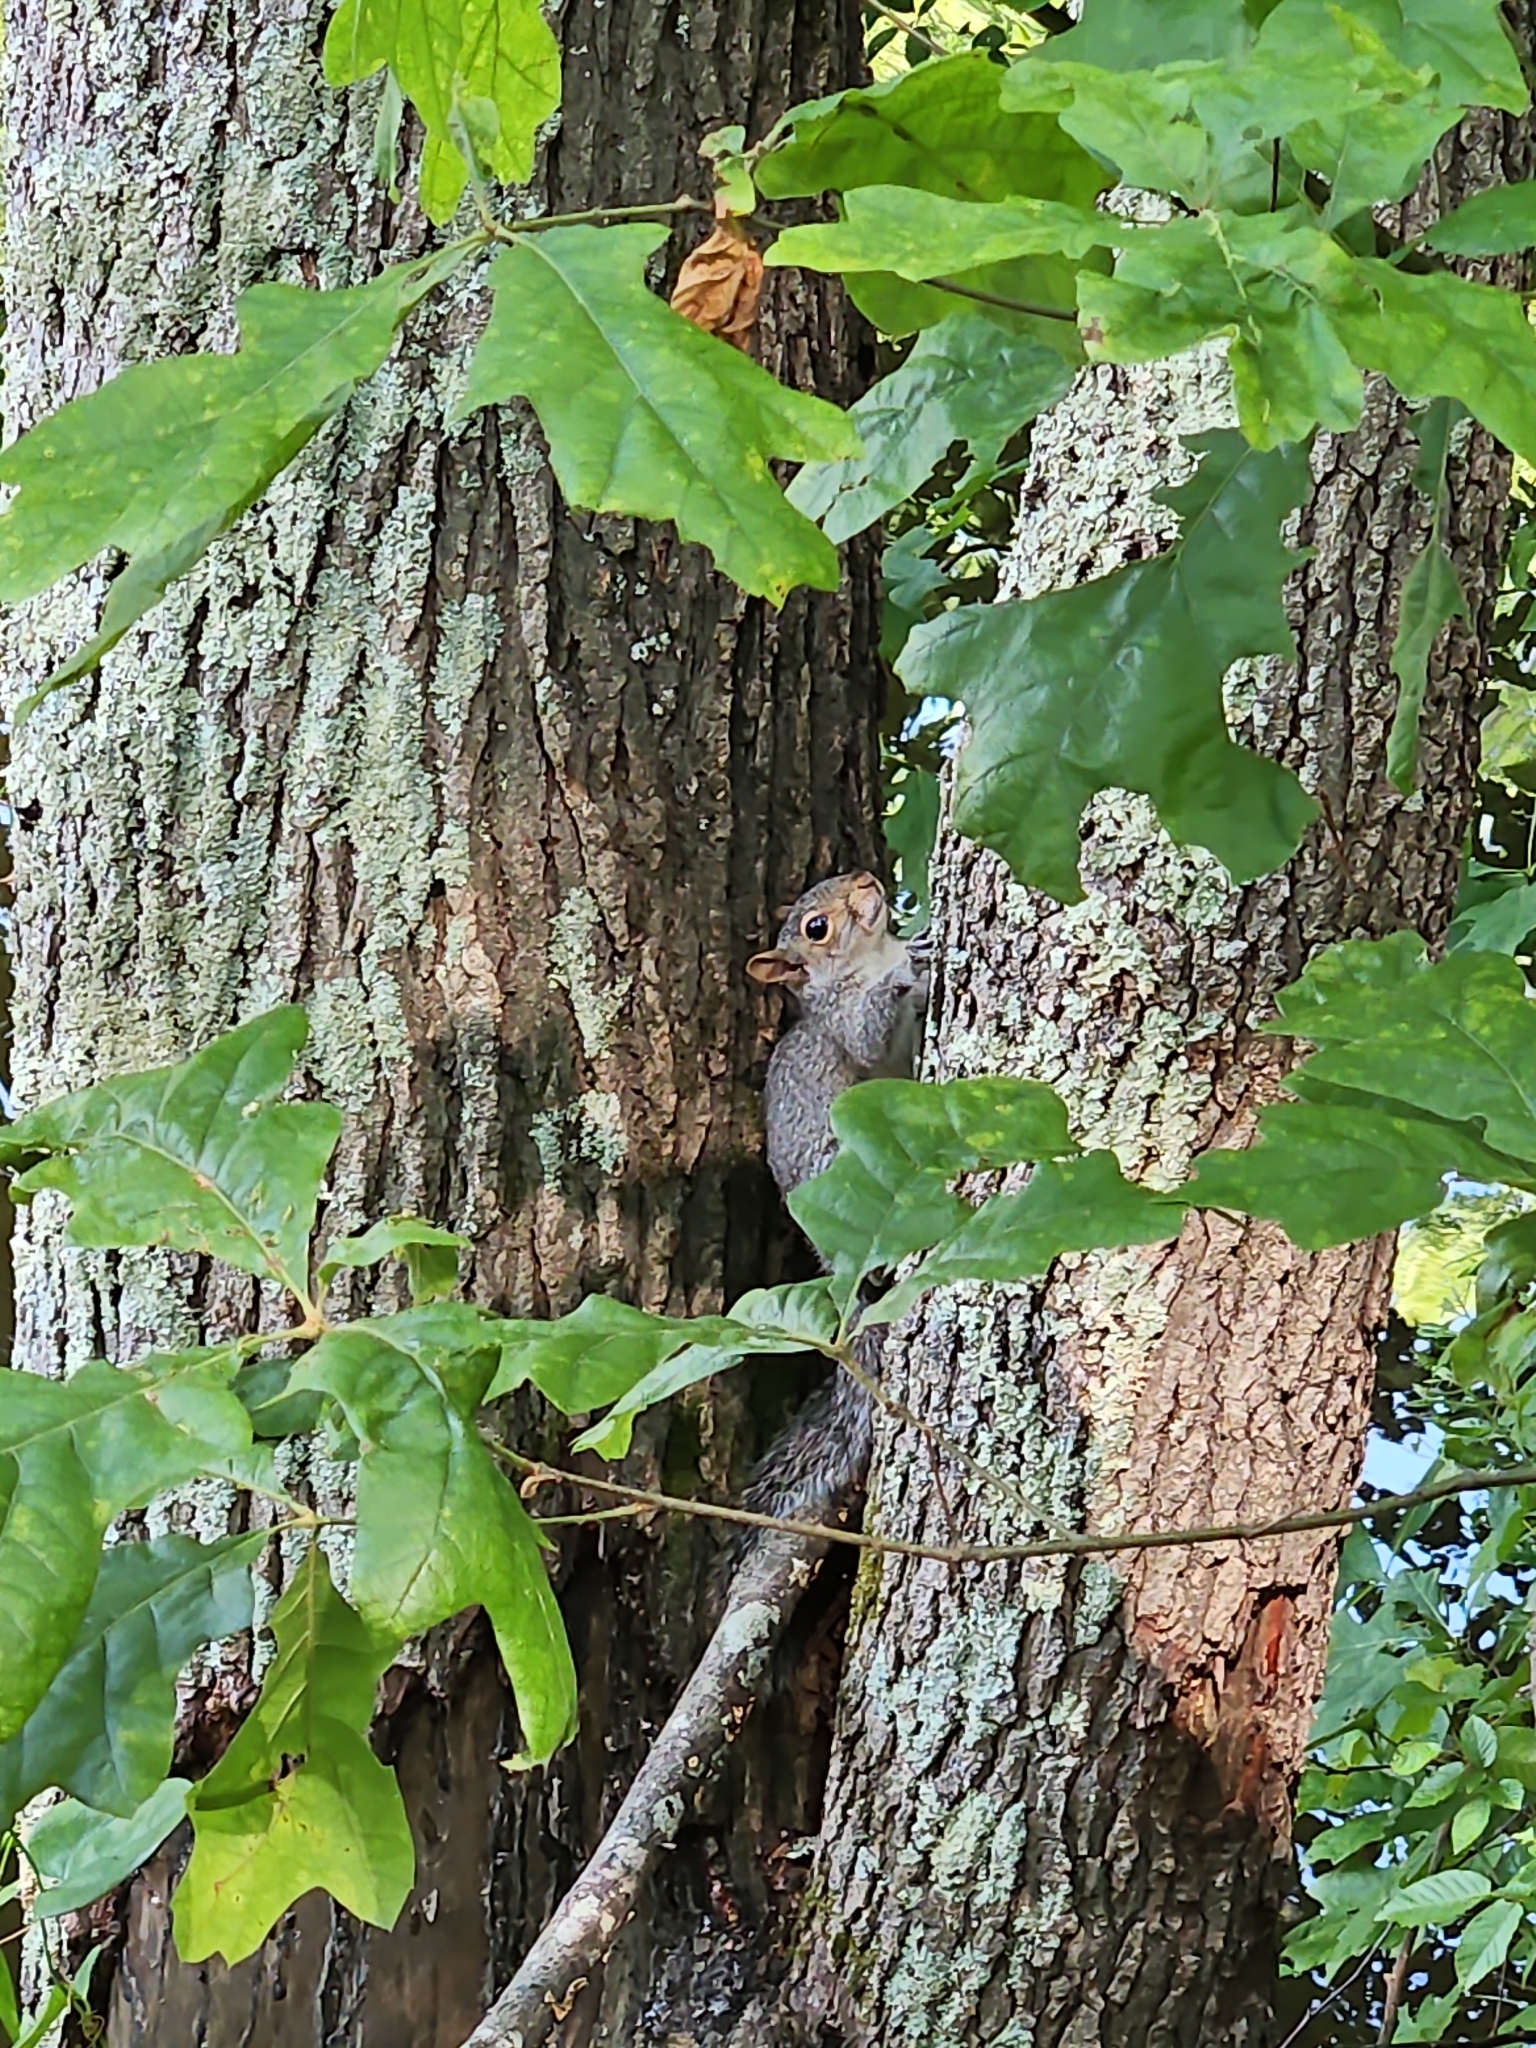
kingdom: Animalia
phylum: Chordata
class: Mammalia
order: Rodentia
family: Sciuridae
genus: Sciurus
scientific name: Sciurus carolinensis
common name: Eastern gray squirrel
